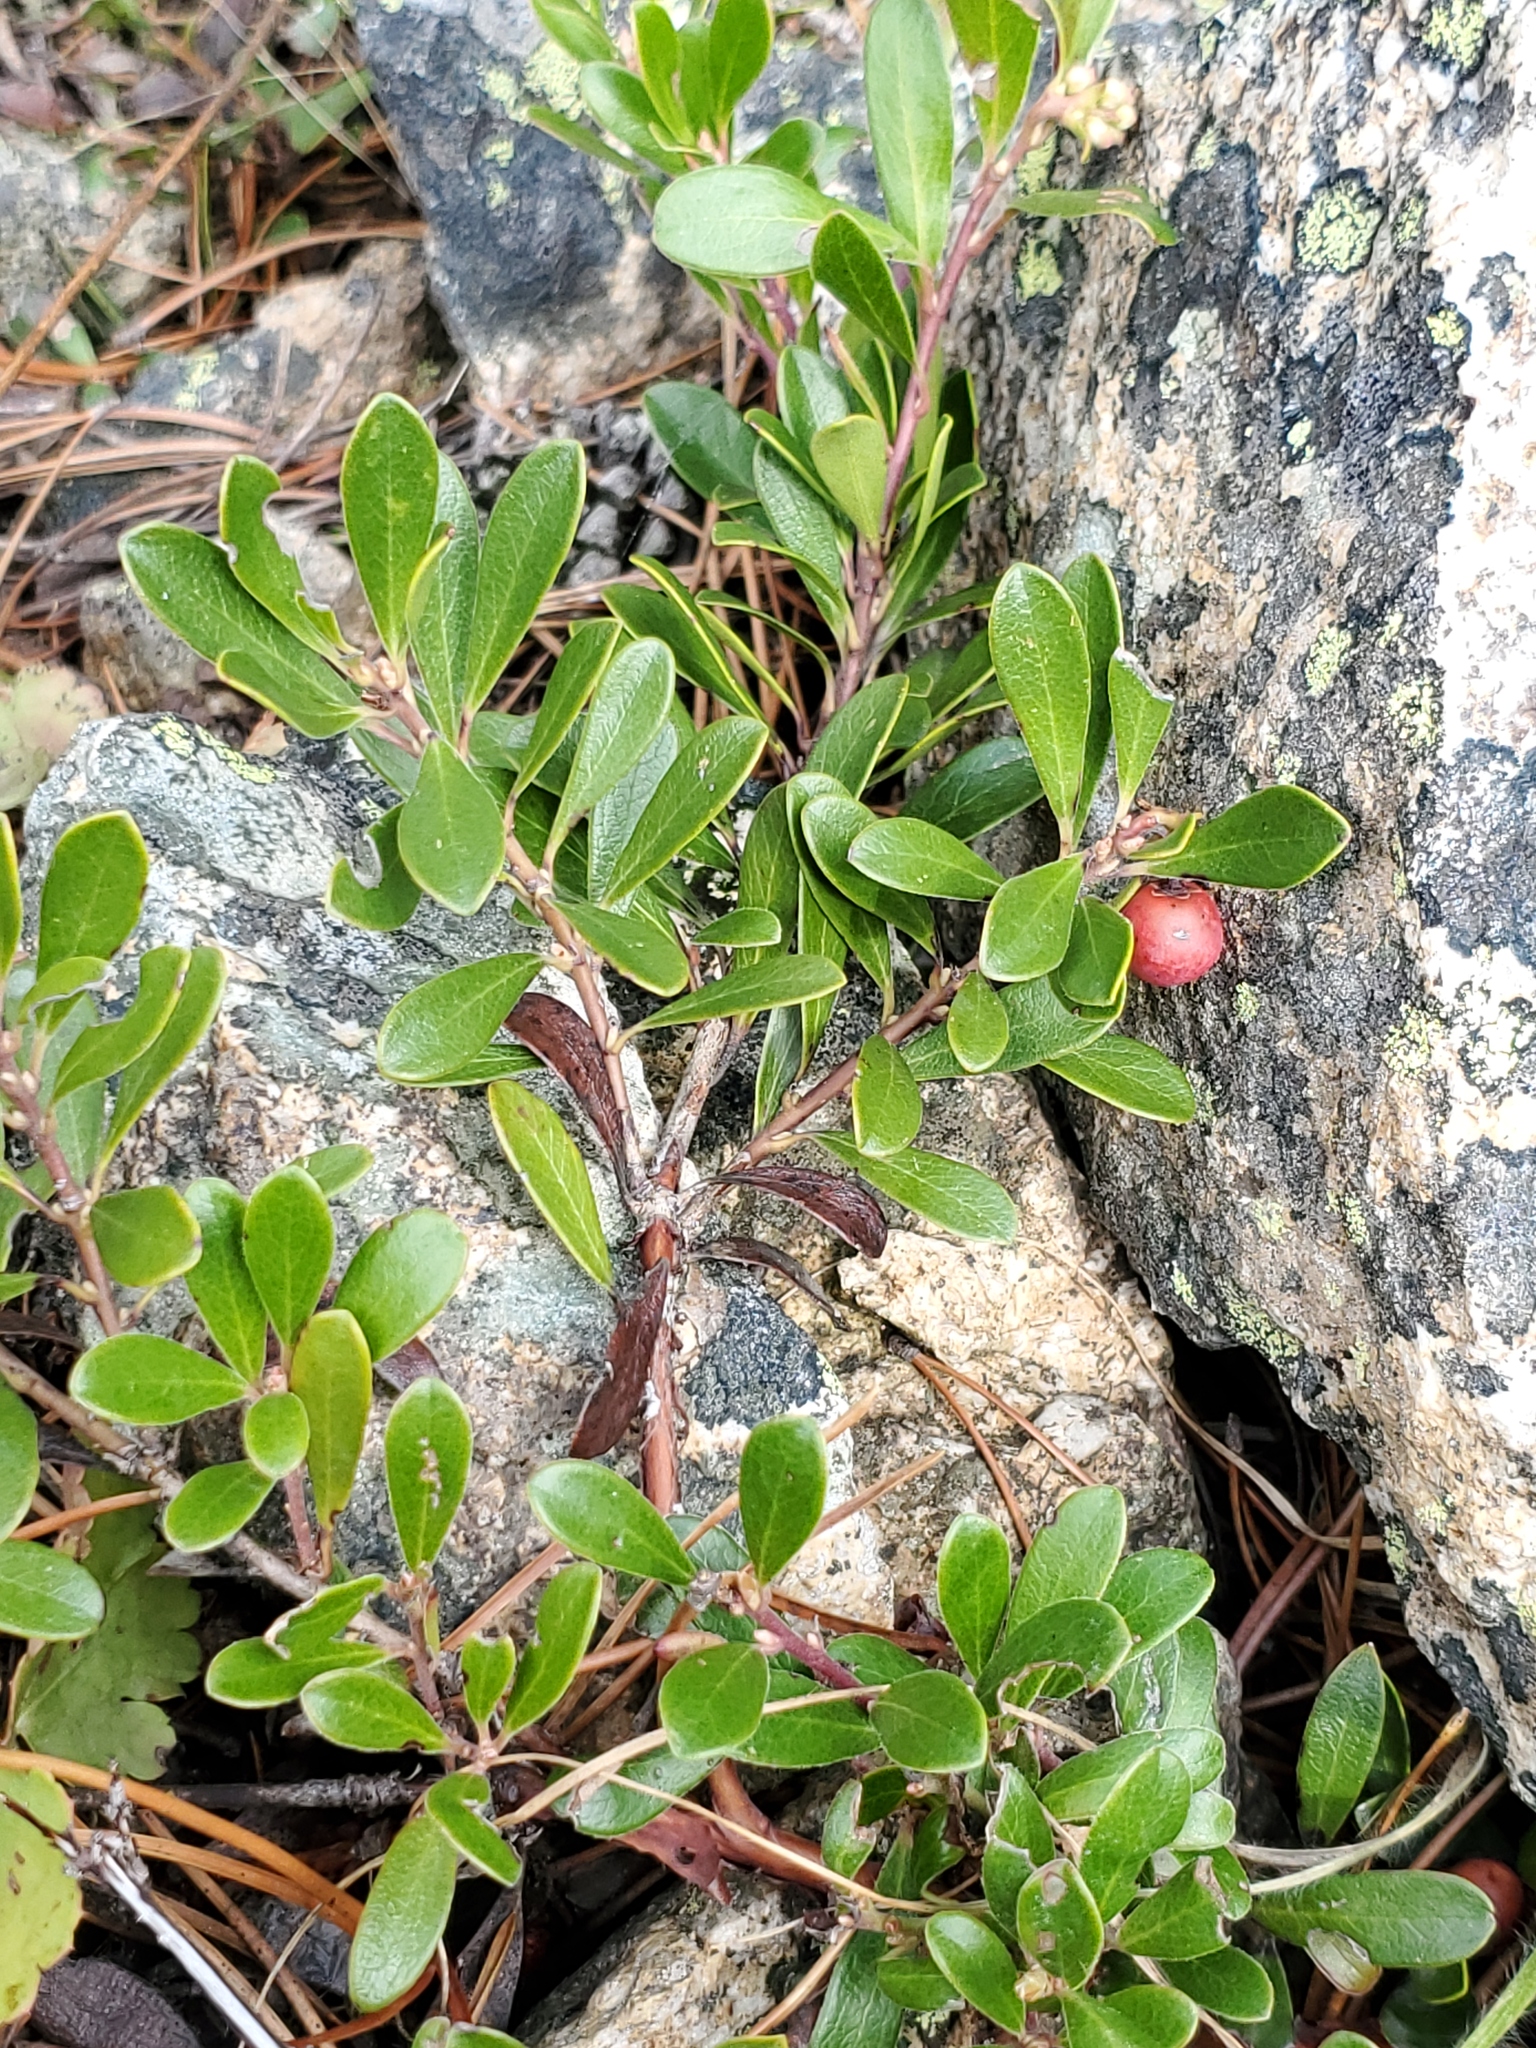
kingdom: Plantae
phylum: Tracheophyta
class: Magnoliopsida
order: Ericales
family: Ericaceae
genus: Arctostaphylos
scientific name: Arctostaphylos uva-ursi
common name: Bearberry
